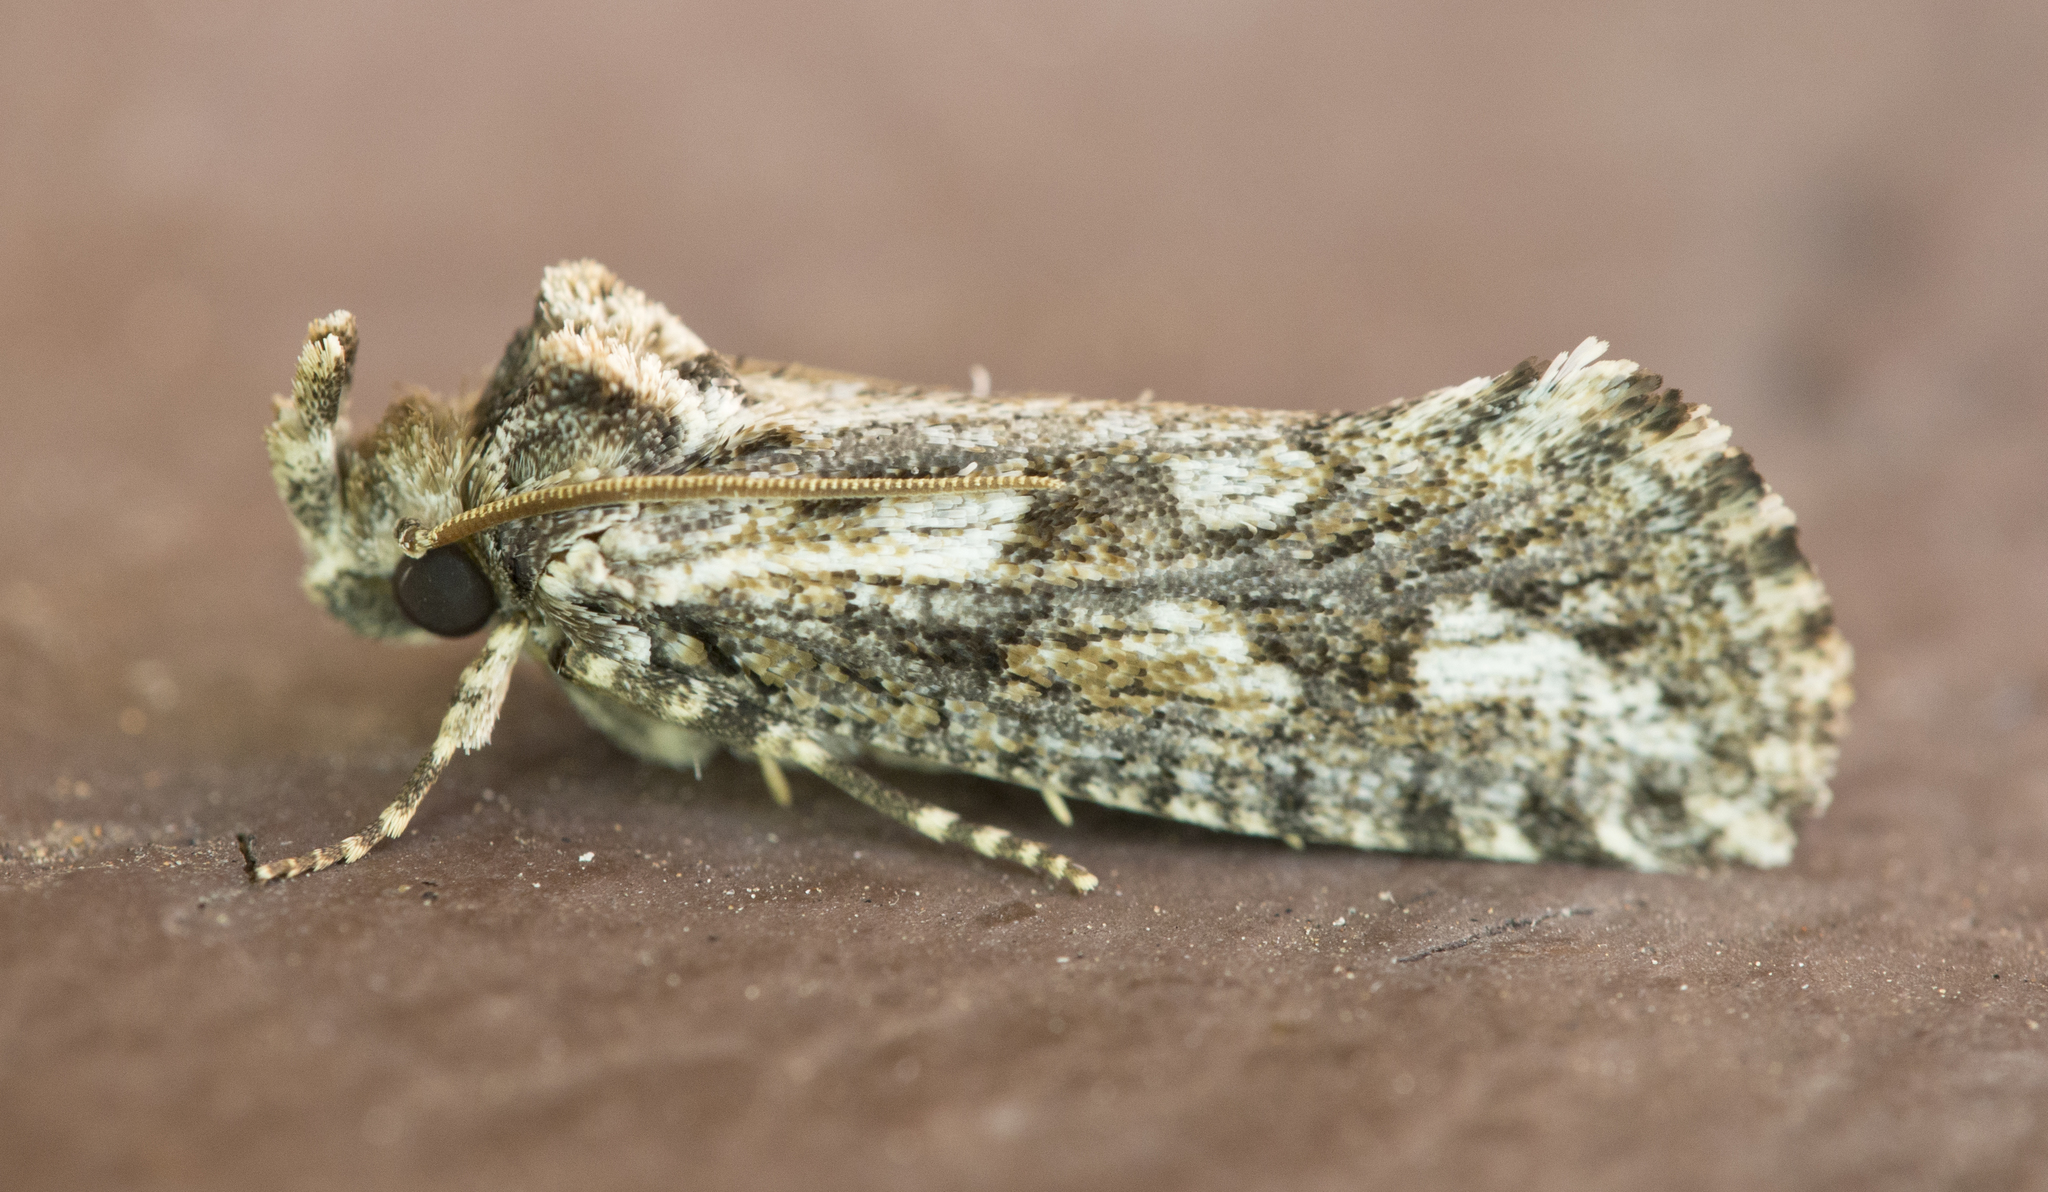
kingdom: Animalia
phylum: Arthropoda
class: Insecta
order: Lepidoptera
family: Tineidae
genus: Acrolophus
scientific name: Acrolophus variabilis
